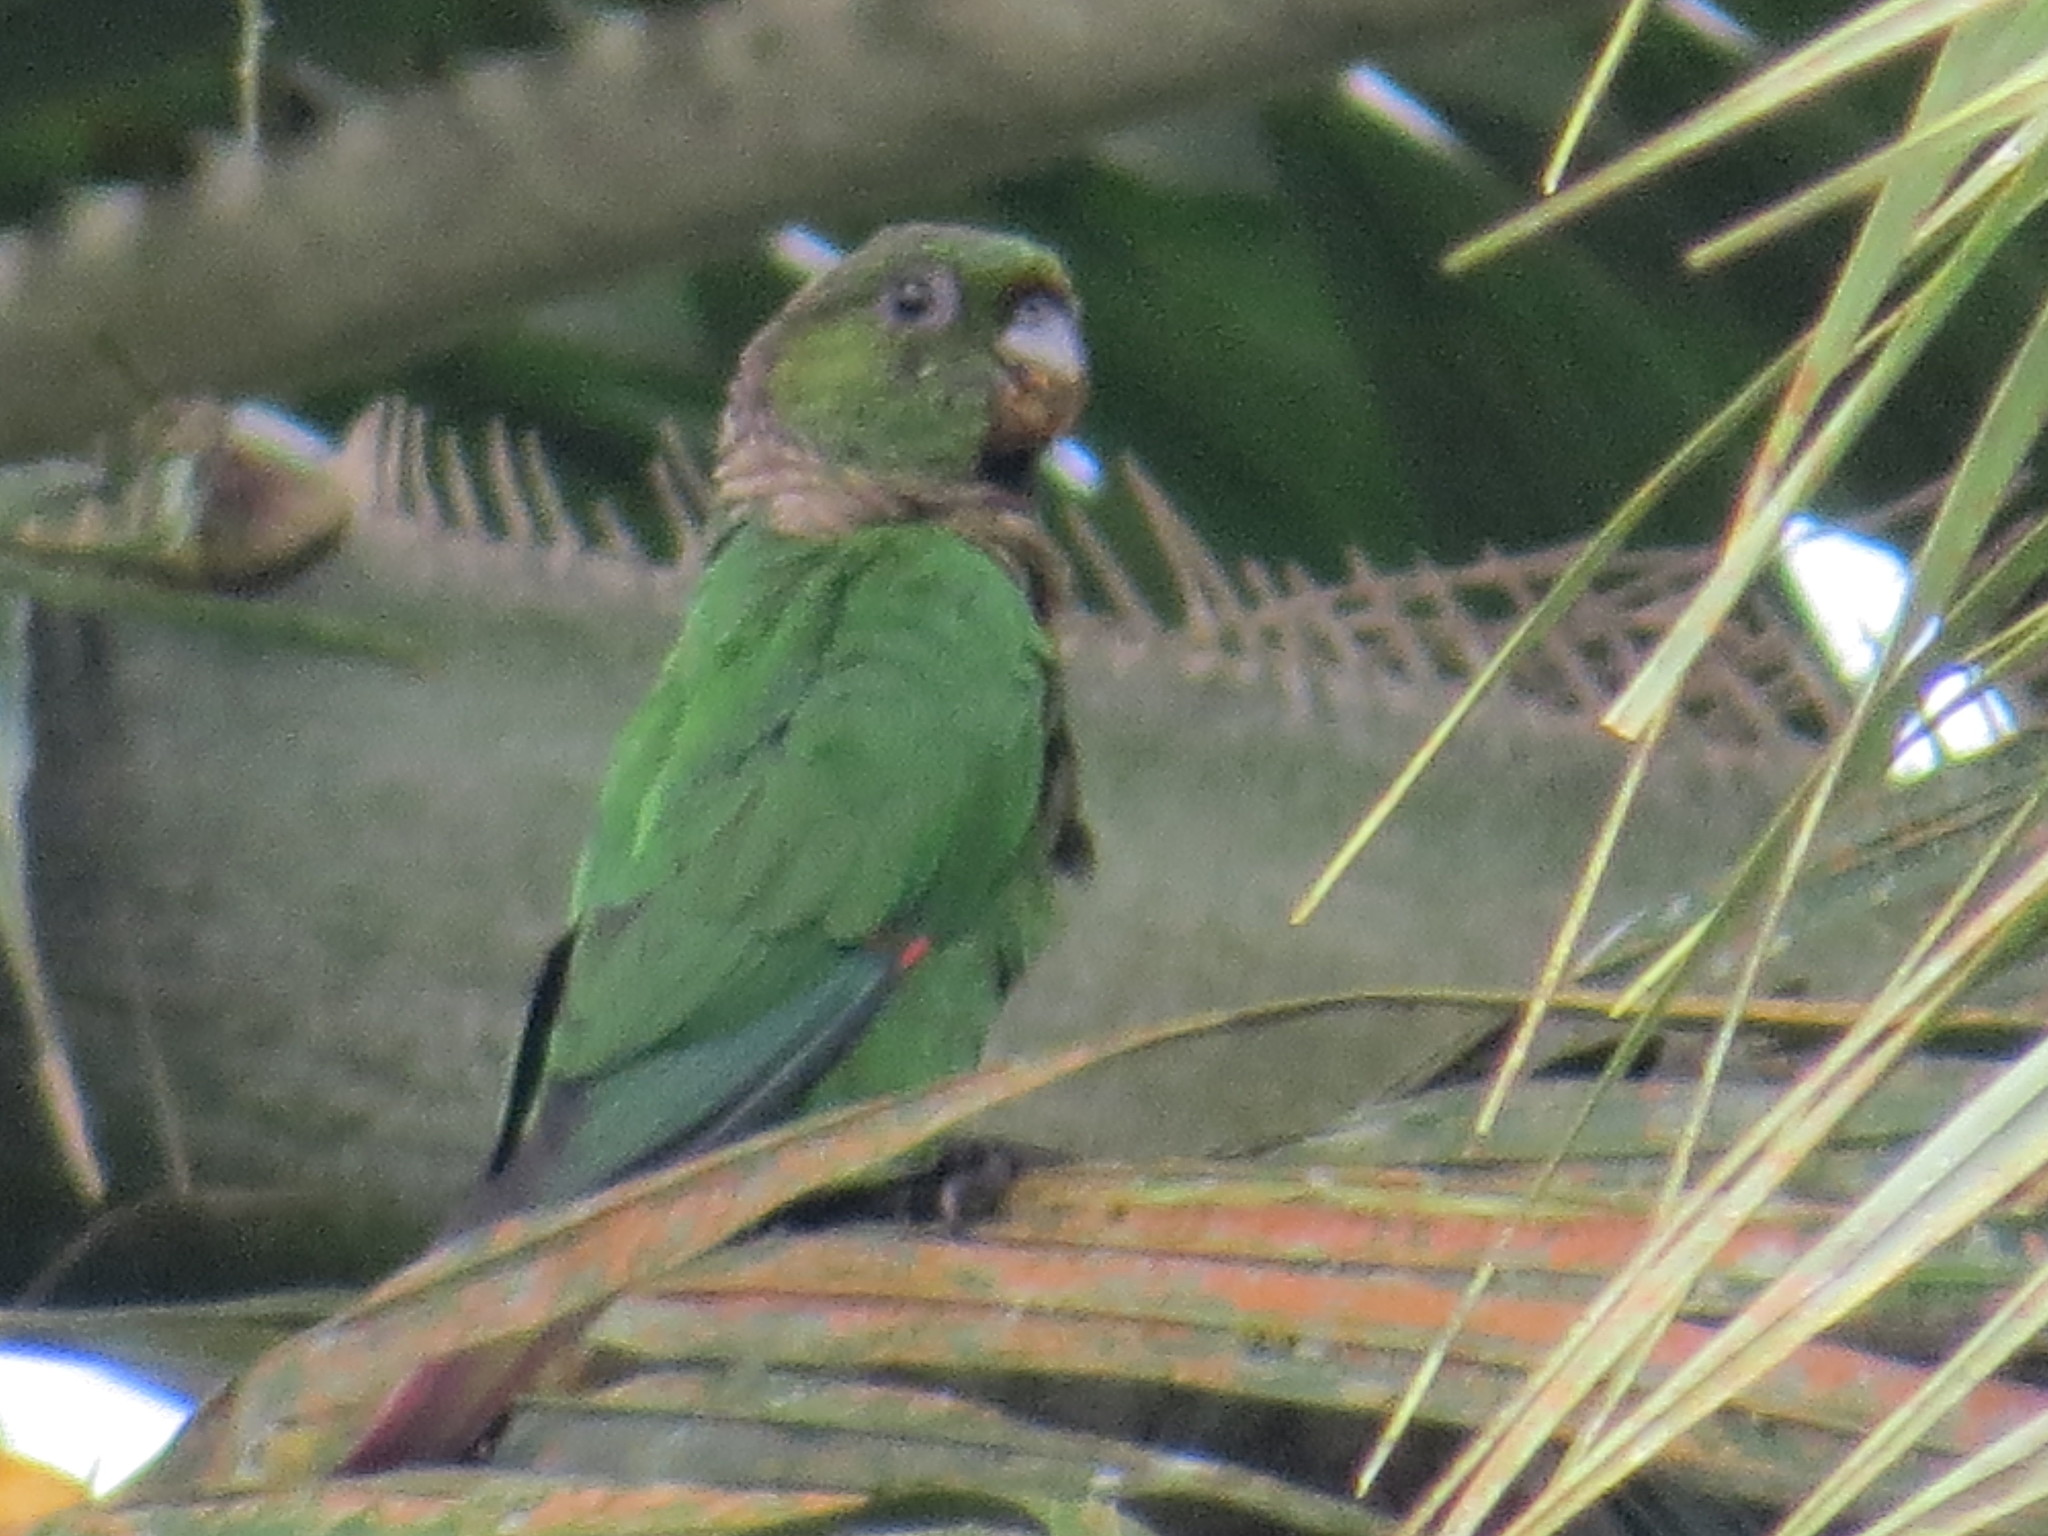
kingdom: Animalia
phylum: Chordata
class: Aves
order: Psittaciformes
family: Psittacidae
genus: Pyrrhura
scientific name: Pyrrhura melanura
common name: Maroon-tailed parakeet
